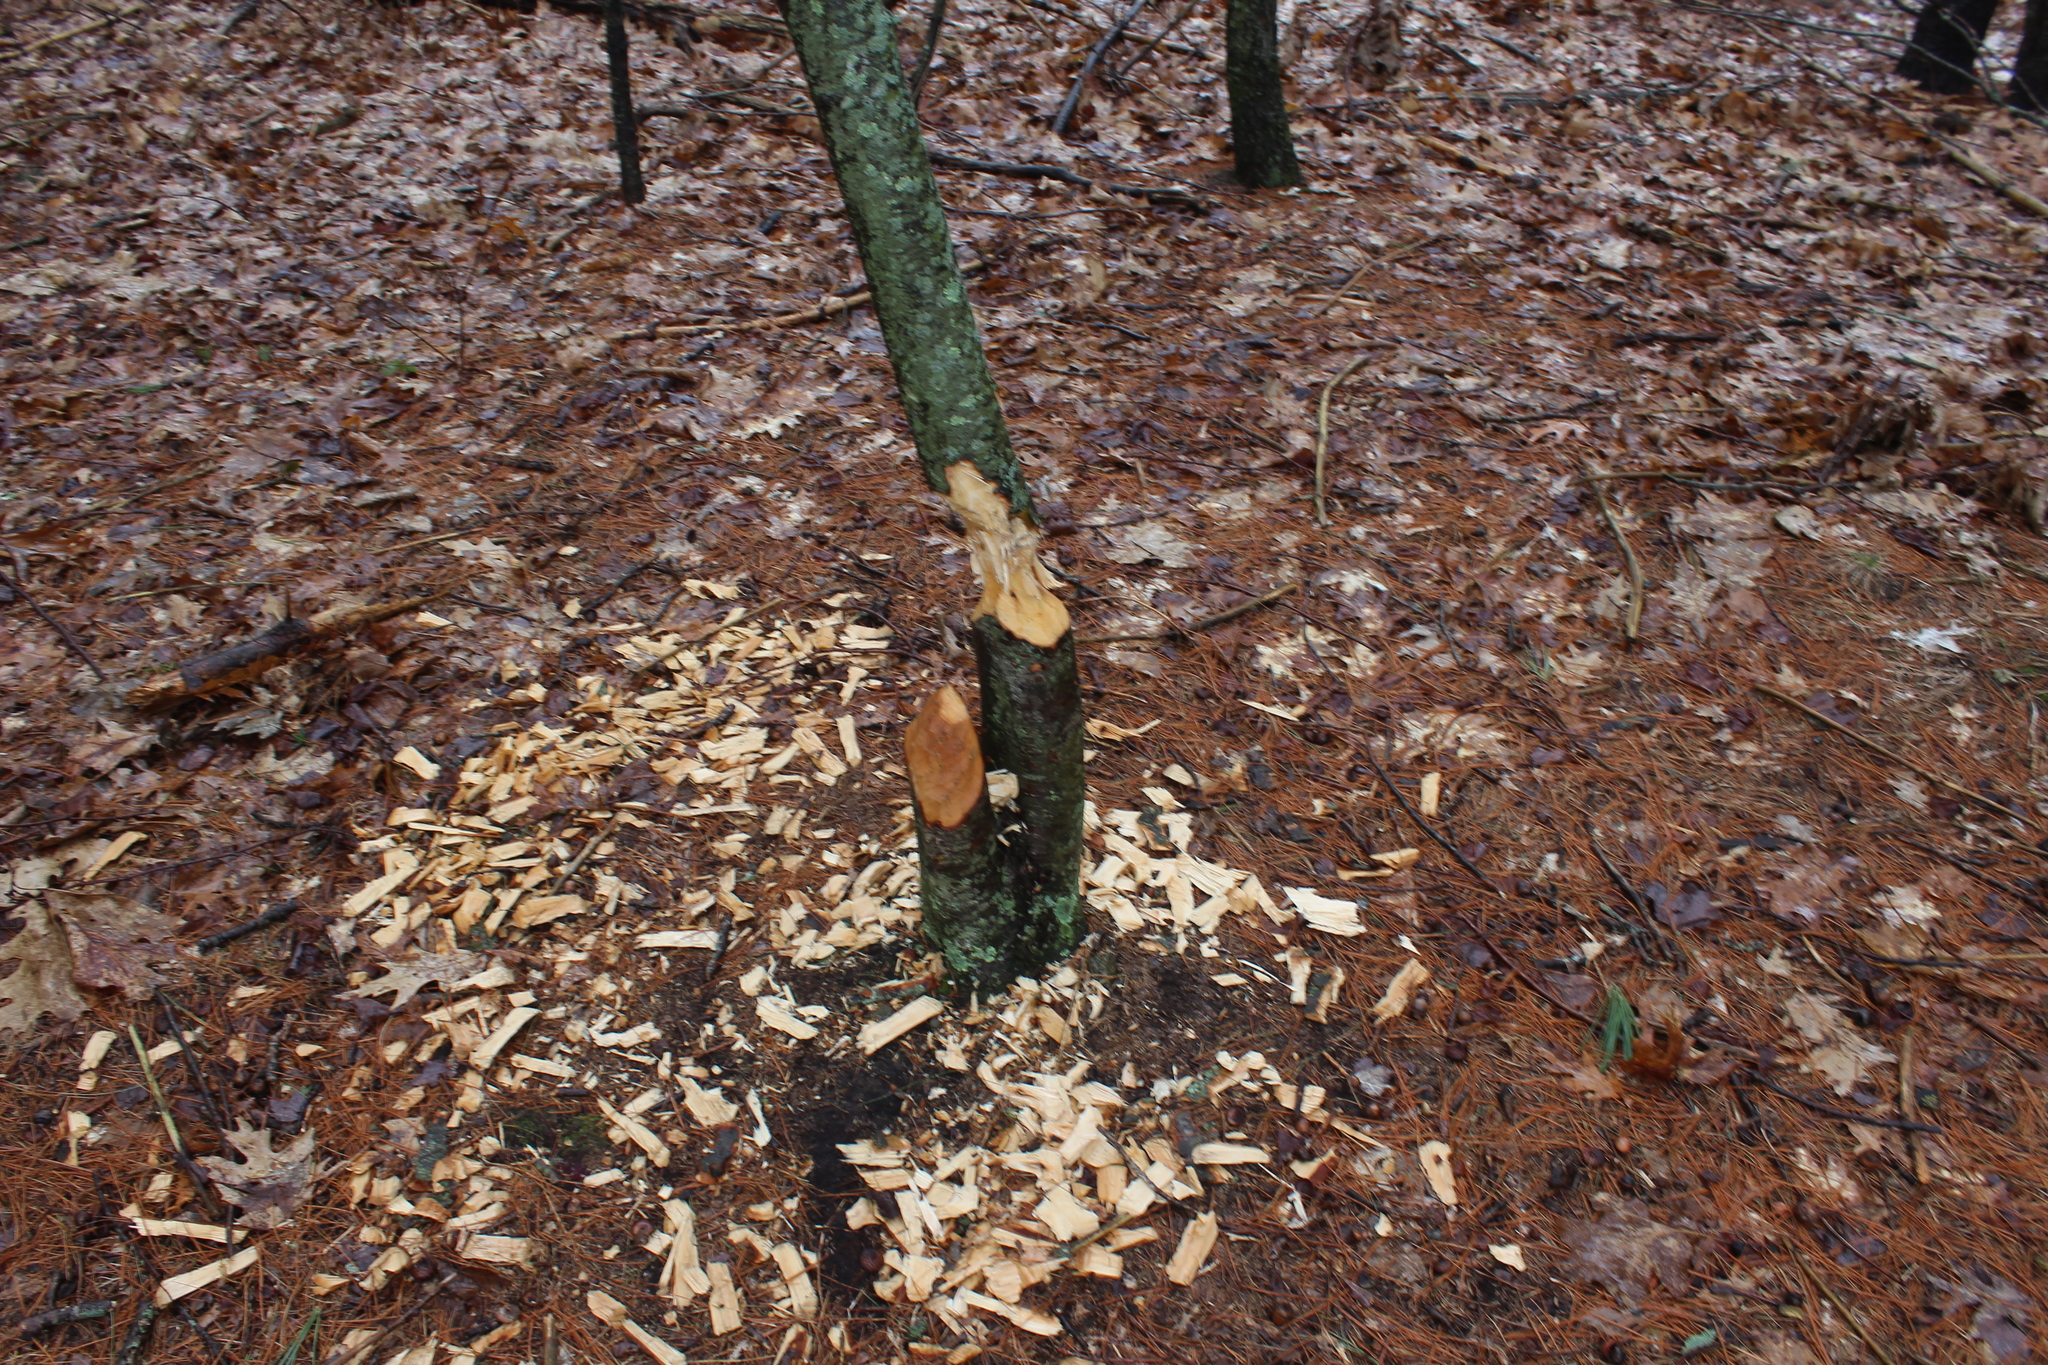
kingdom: Animalia
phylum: Chordata
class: Mammalia
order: Rodentia
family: Castoridae
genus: Castor
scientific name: Castor canadensis
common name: American beaver
